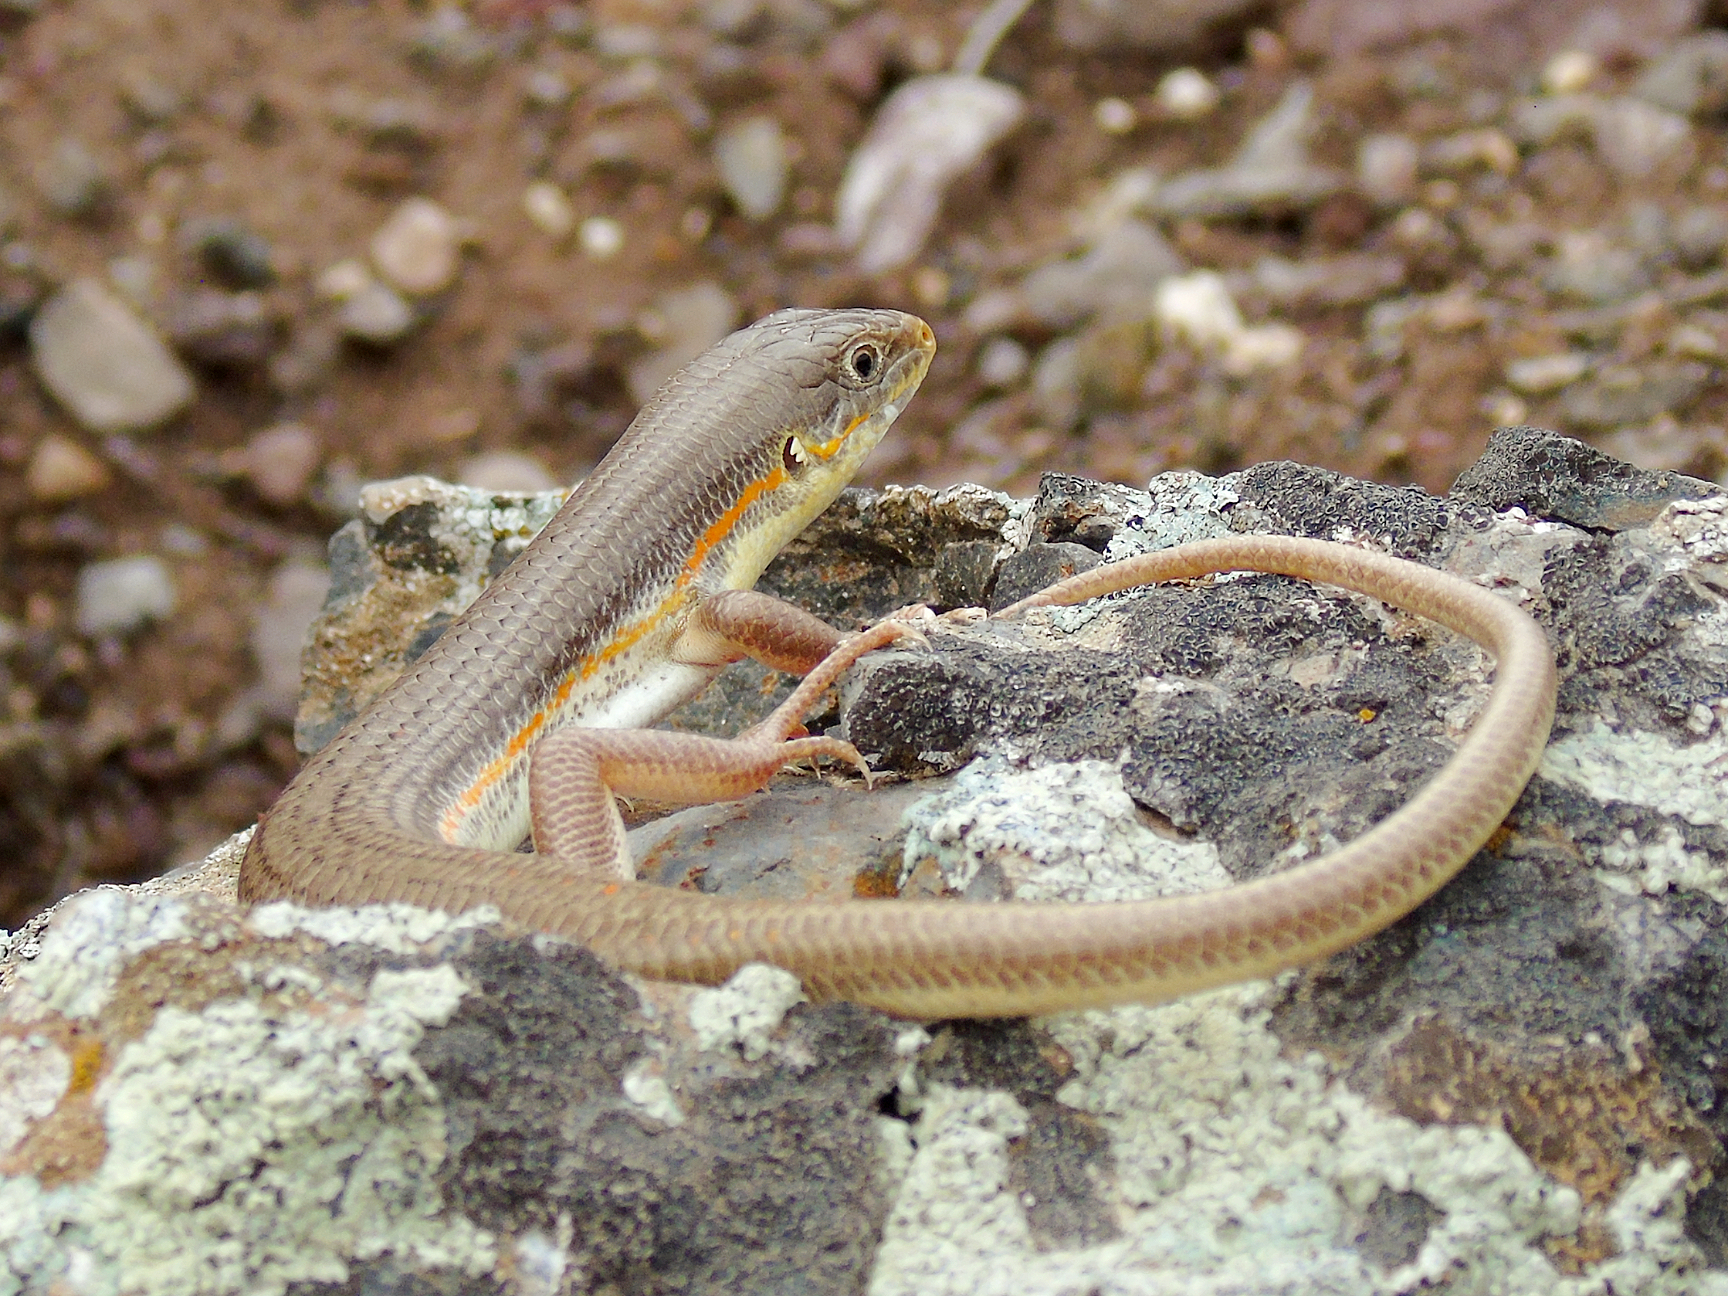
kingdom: Animalia
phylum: Chordata
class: Squamata
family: Scincidae
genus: Eumeces
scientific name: Eumeces schneiderii
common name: Schneider's skink
